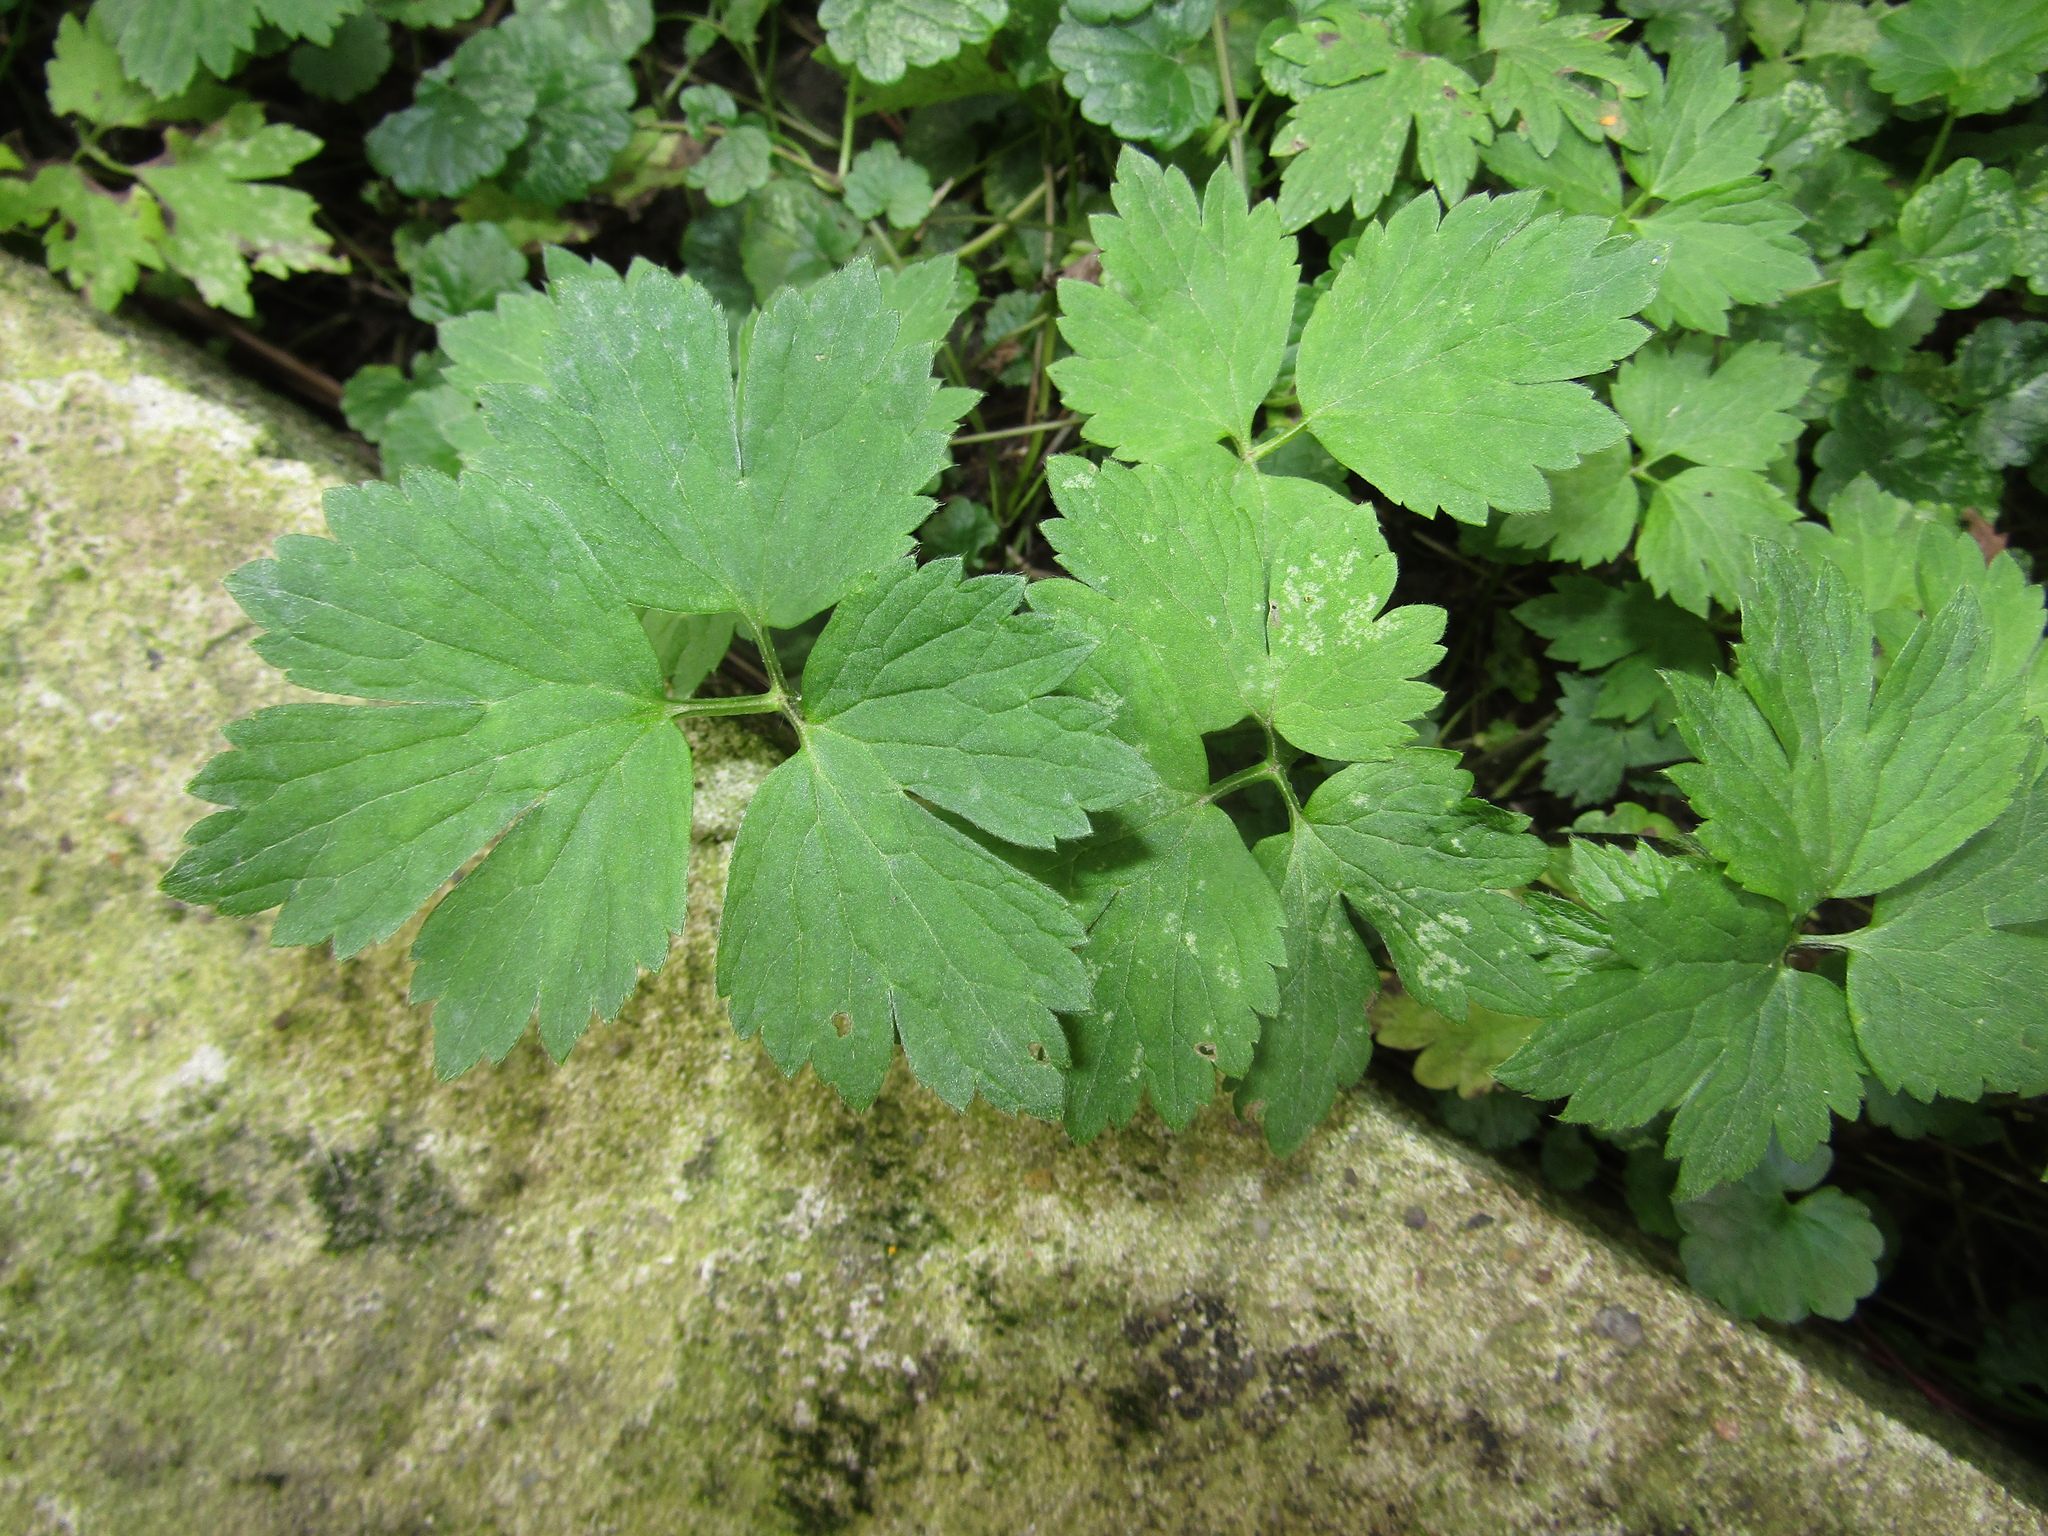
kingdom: Plantae
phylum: Tracheophyta
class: Magnoliopsida
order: Ranunculales
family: Ranunculaceae
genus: Ranunculus
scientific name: Ranunculus repens
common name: Creeping buttercup
